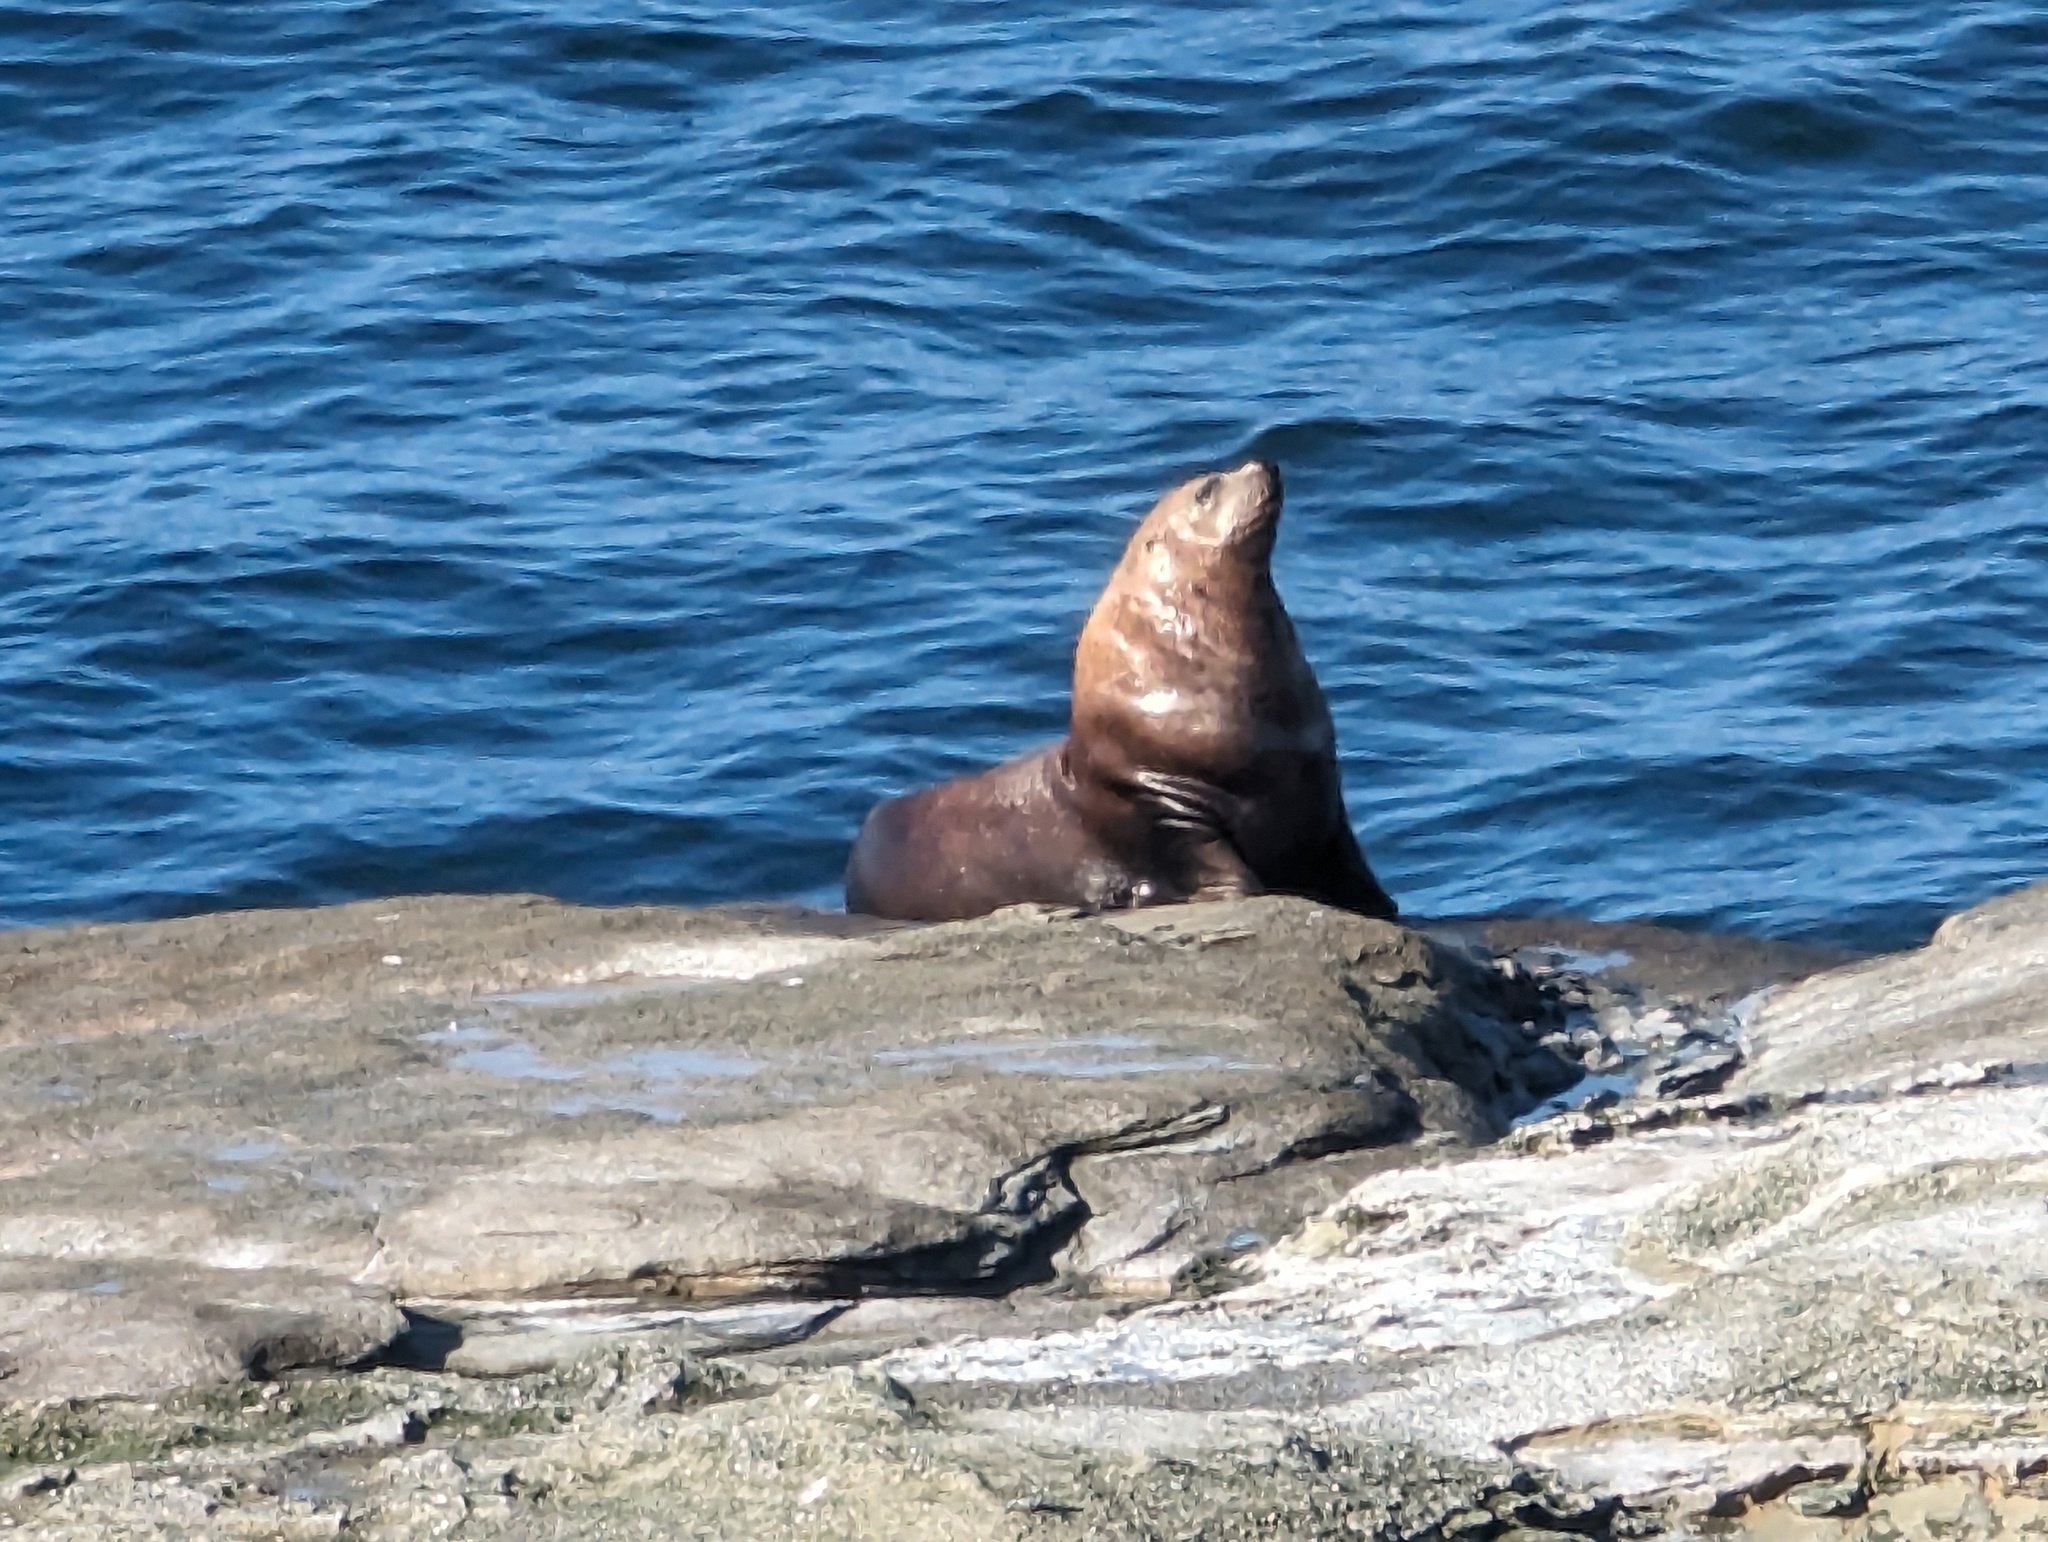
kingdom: Animalia
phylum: Chordata
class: Mammalia
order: Carnivora
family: Otariidae
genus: Eumetopias
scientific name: Eumetopias jubatus
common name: Steller sea lion
